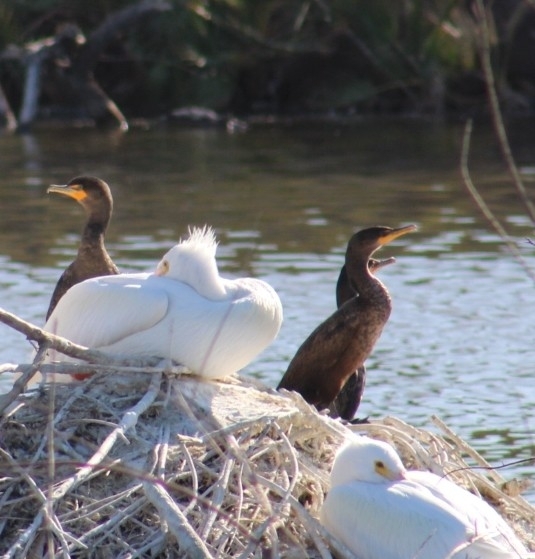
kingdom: Animalia
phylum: Chordata
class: Aves
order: Suliformes
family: Phalacrocoracidae
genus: Phalacrocorax
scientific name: Phalacrocorax auritus
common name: Double-crested cormorant
